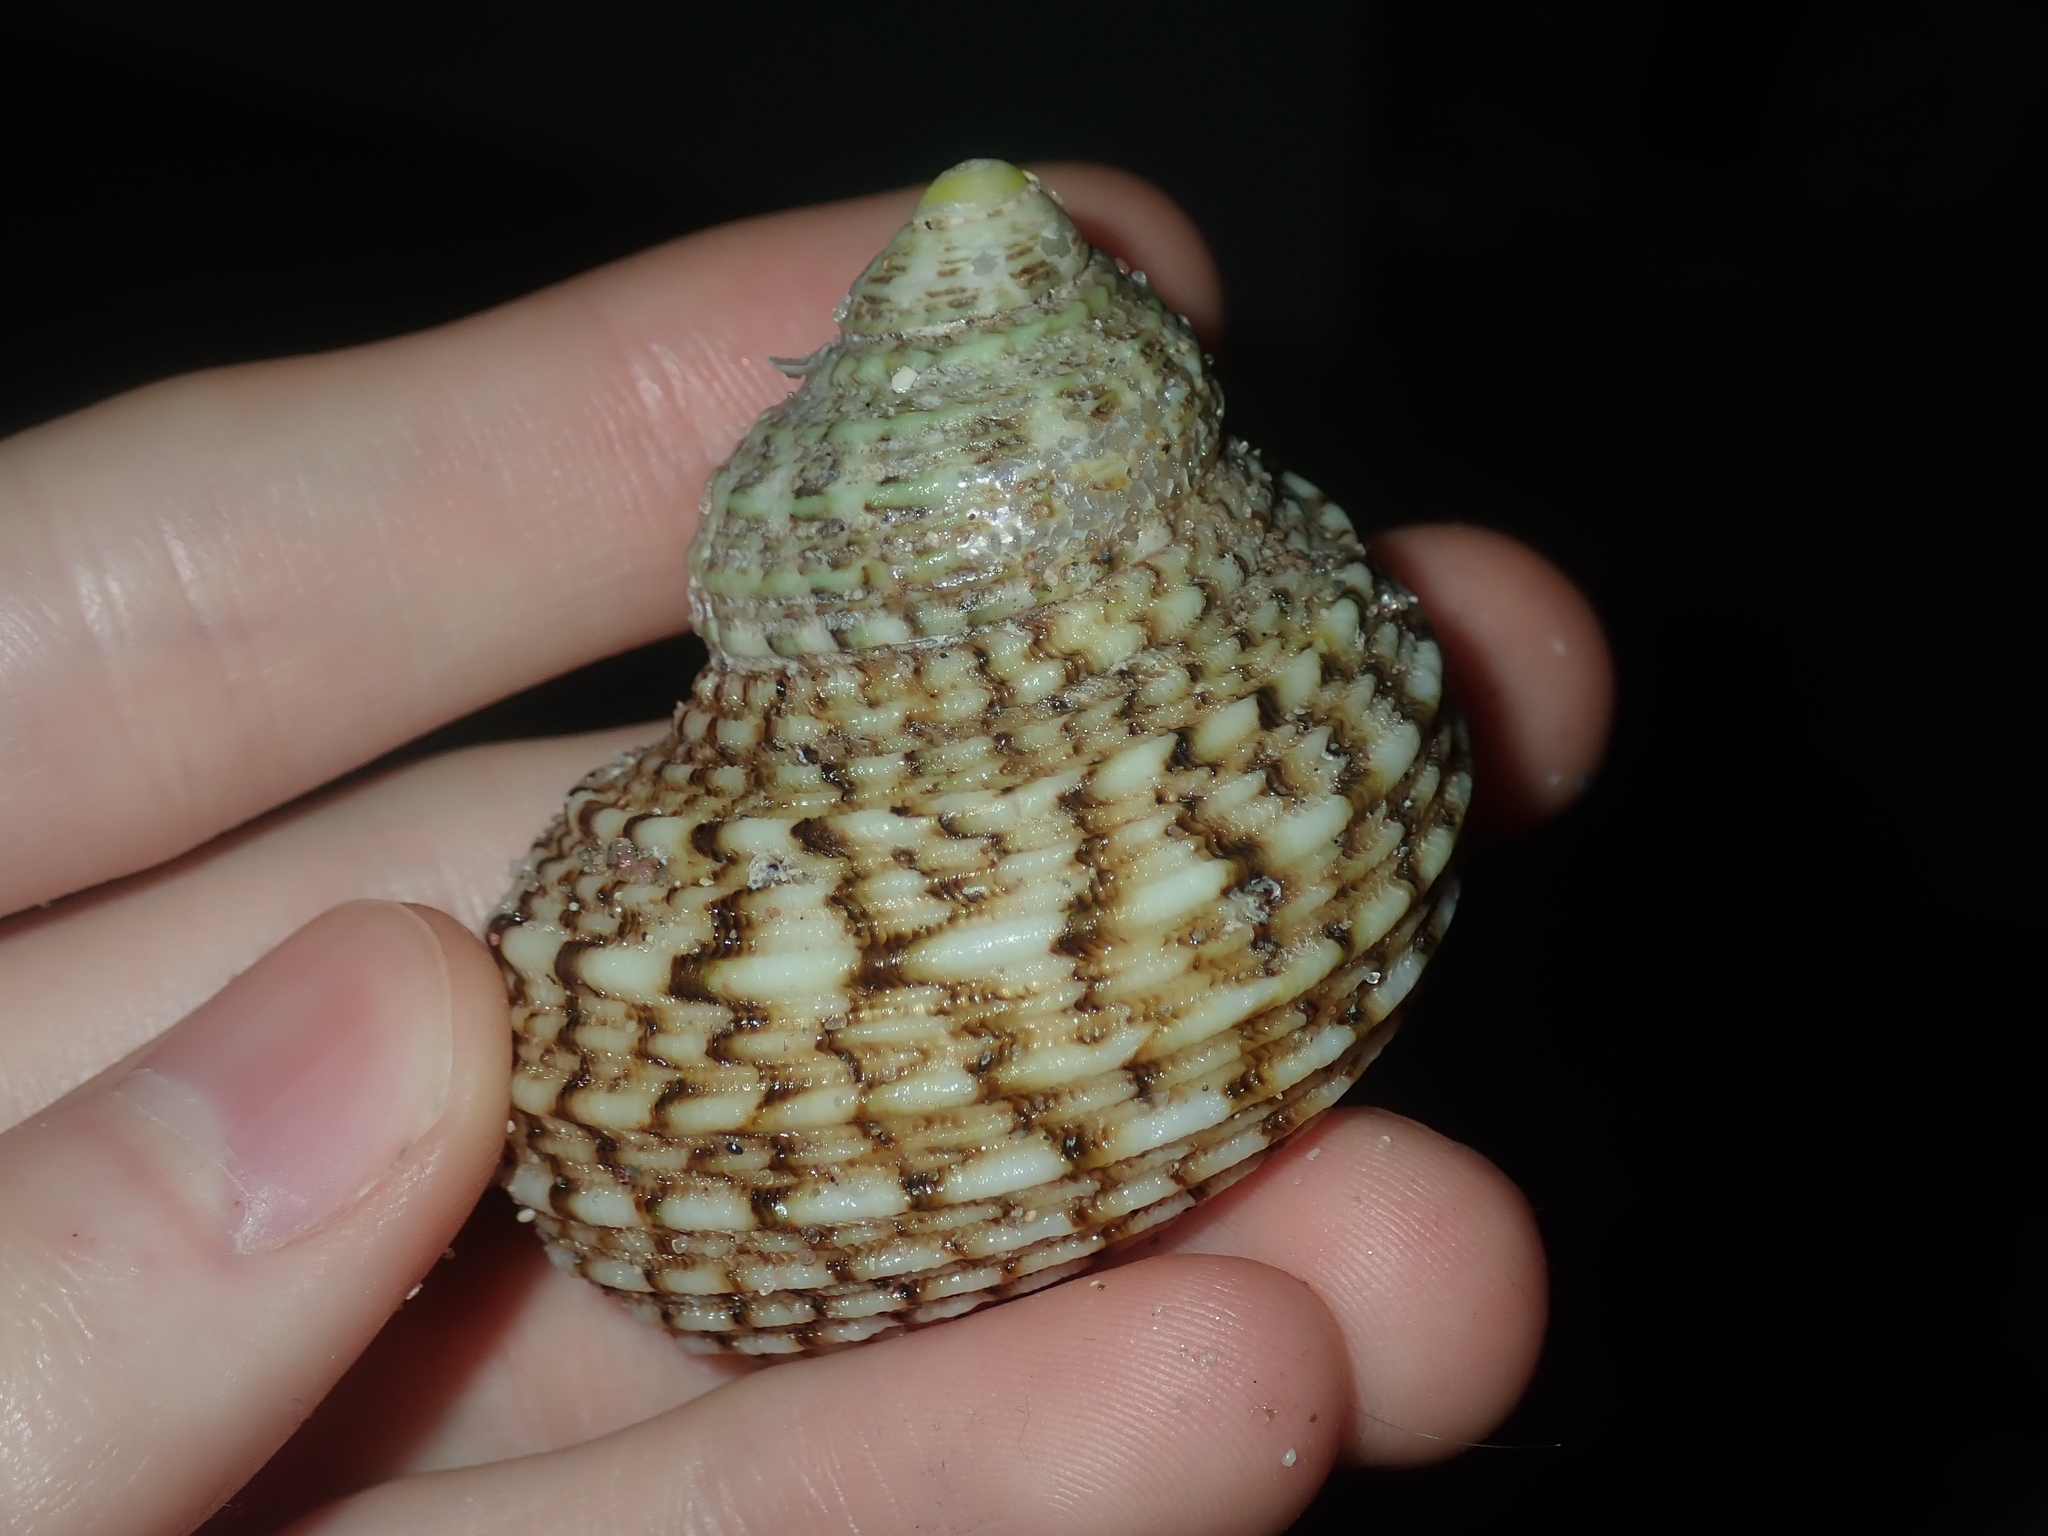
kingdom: Animalia
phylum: Mollusca
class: Gastropoda
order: Trochida
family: Turbinidae
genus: Turbo
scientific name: Turbo kenwilliamsi
